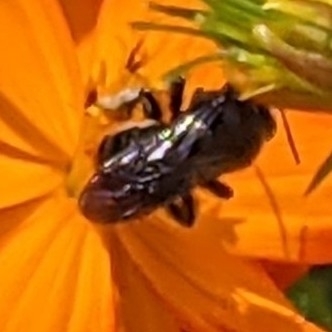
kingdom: Animalia
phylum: Arthropoda
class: Insecta
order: Hymenoptera
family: Apidae
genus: Melissodes
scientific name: Melissodes bimaculatus
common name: Two-spotted long-horned bee
